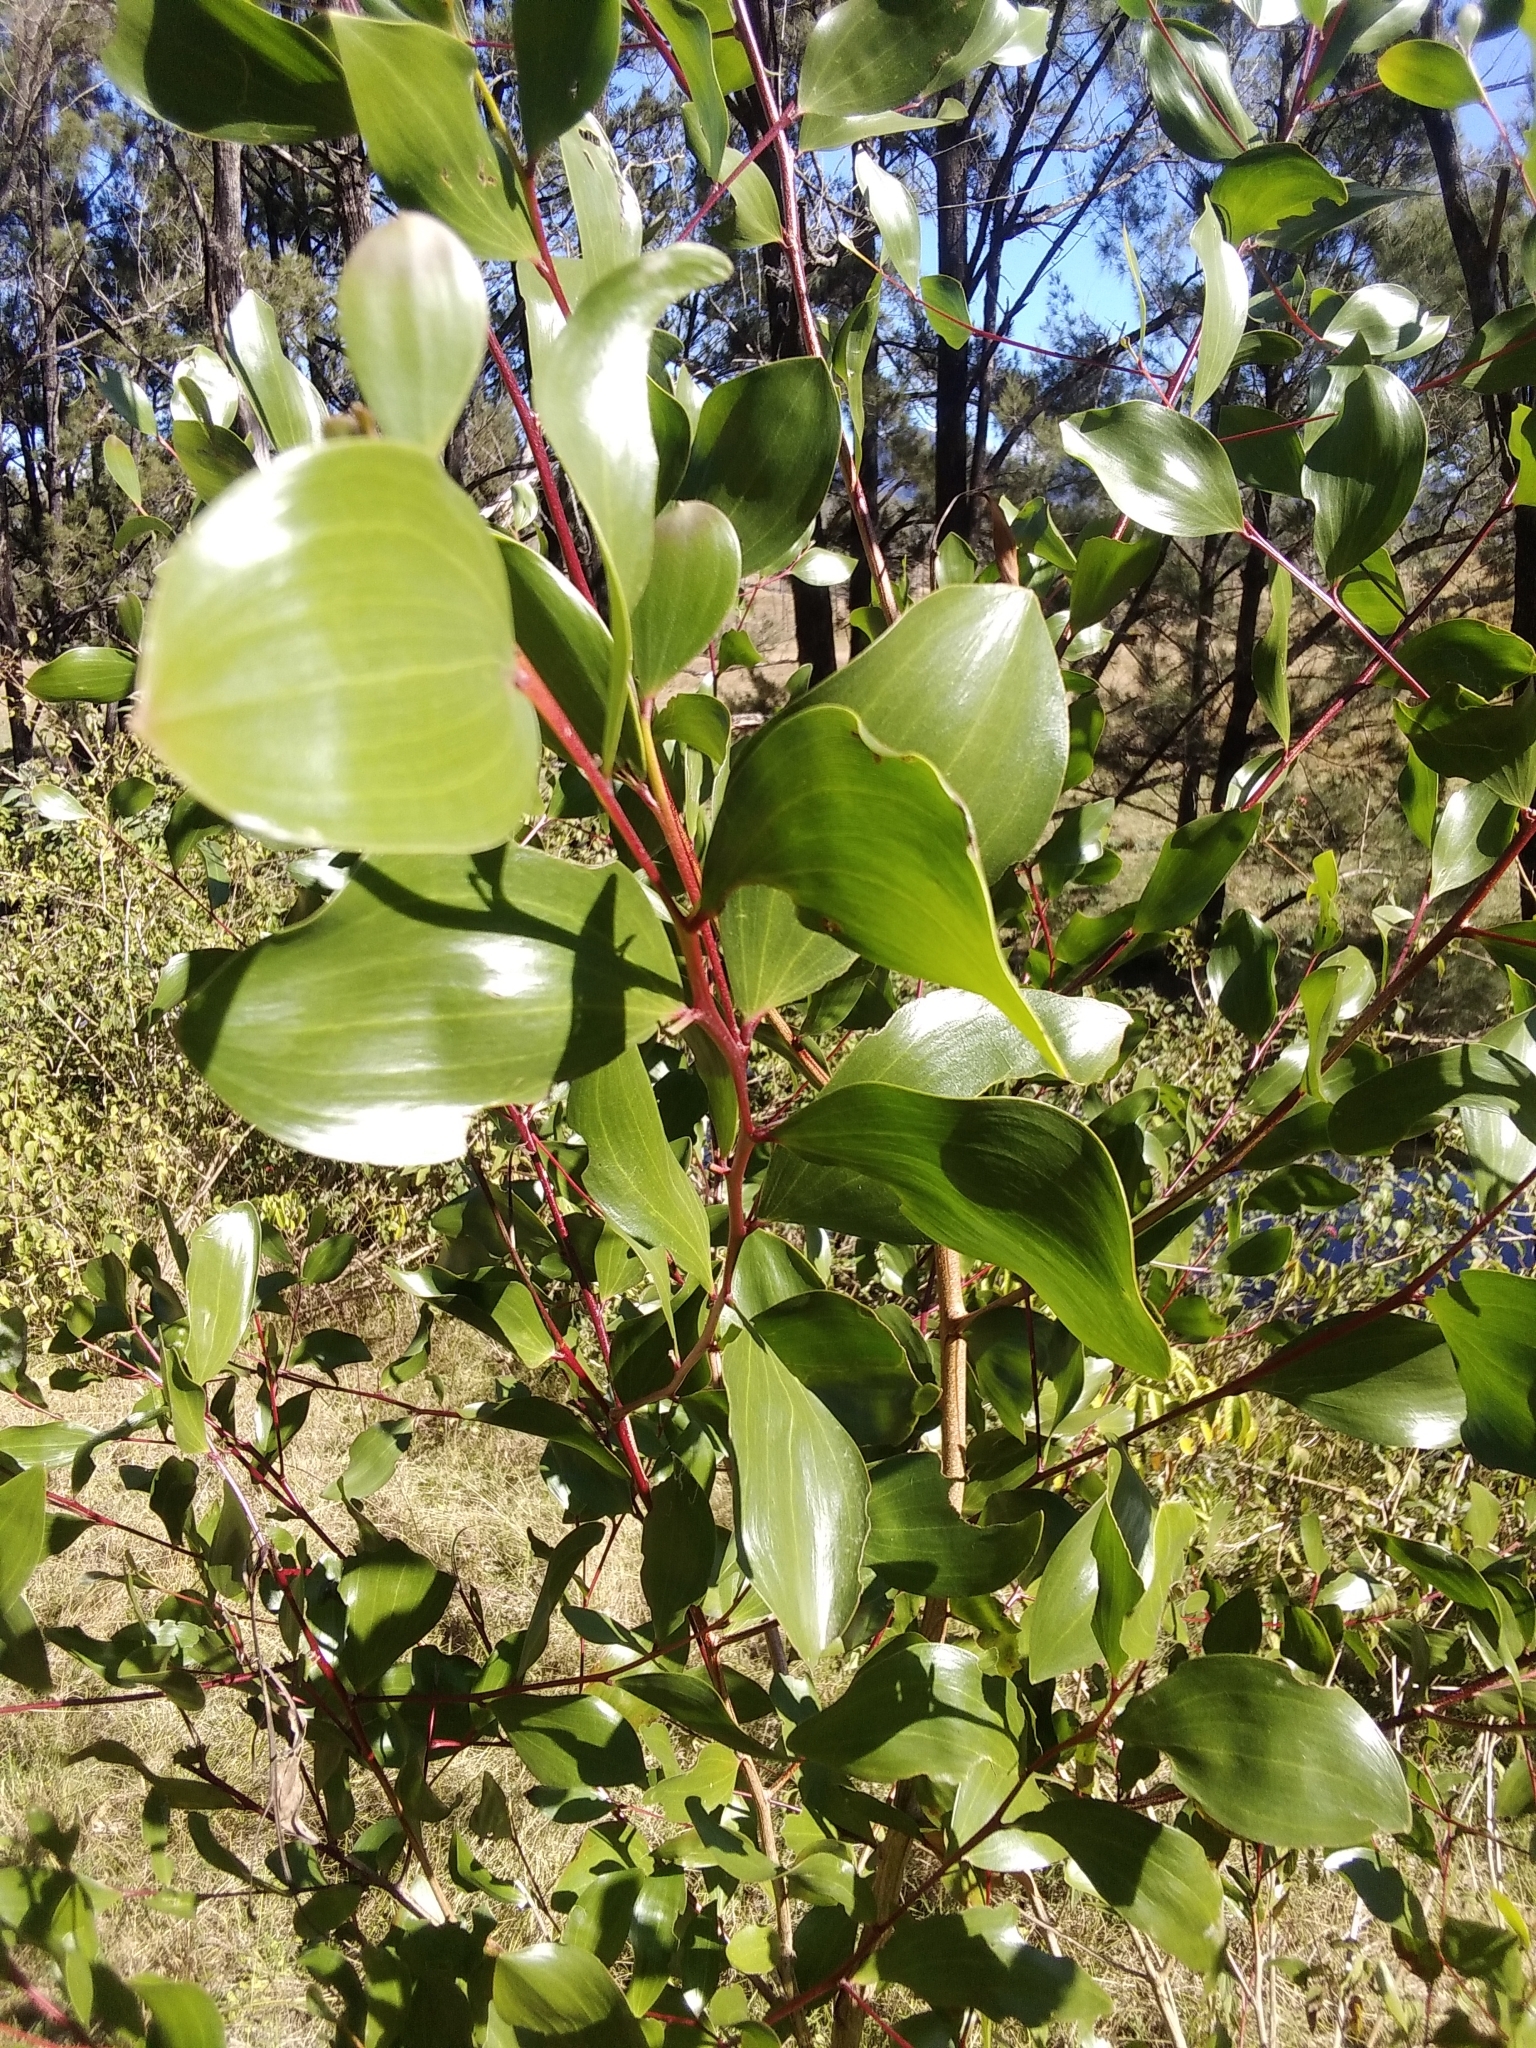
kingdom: Plantae
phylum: Tracheophyta
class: Magnoliopsida
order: Fabales
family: Fabaceae
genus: Acacia
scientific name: Acacia leiocalyx
